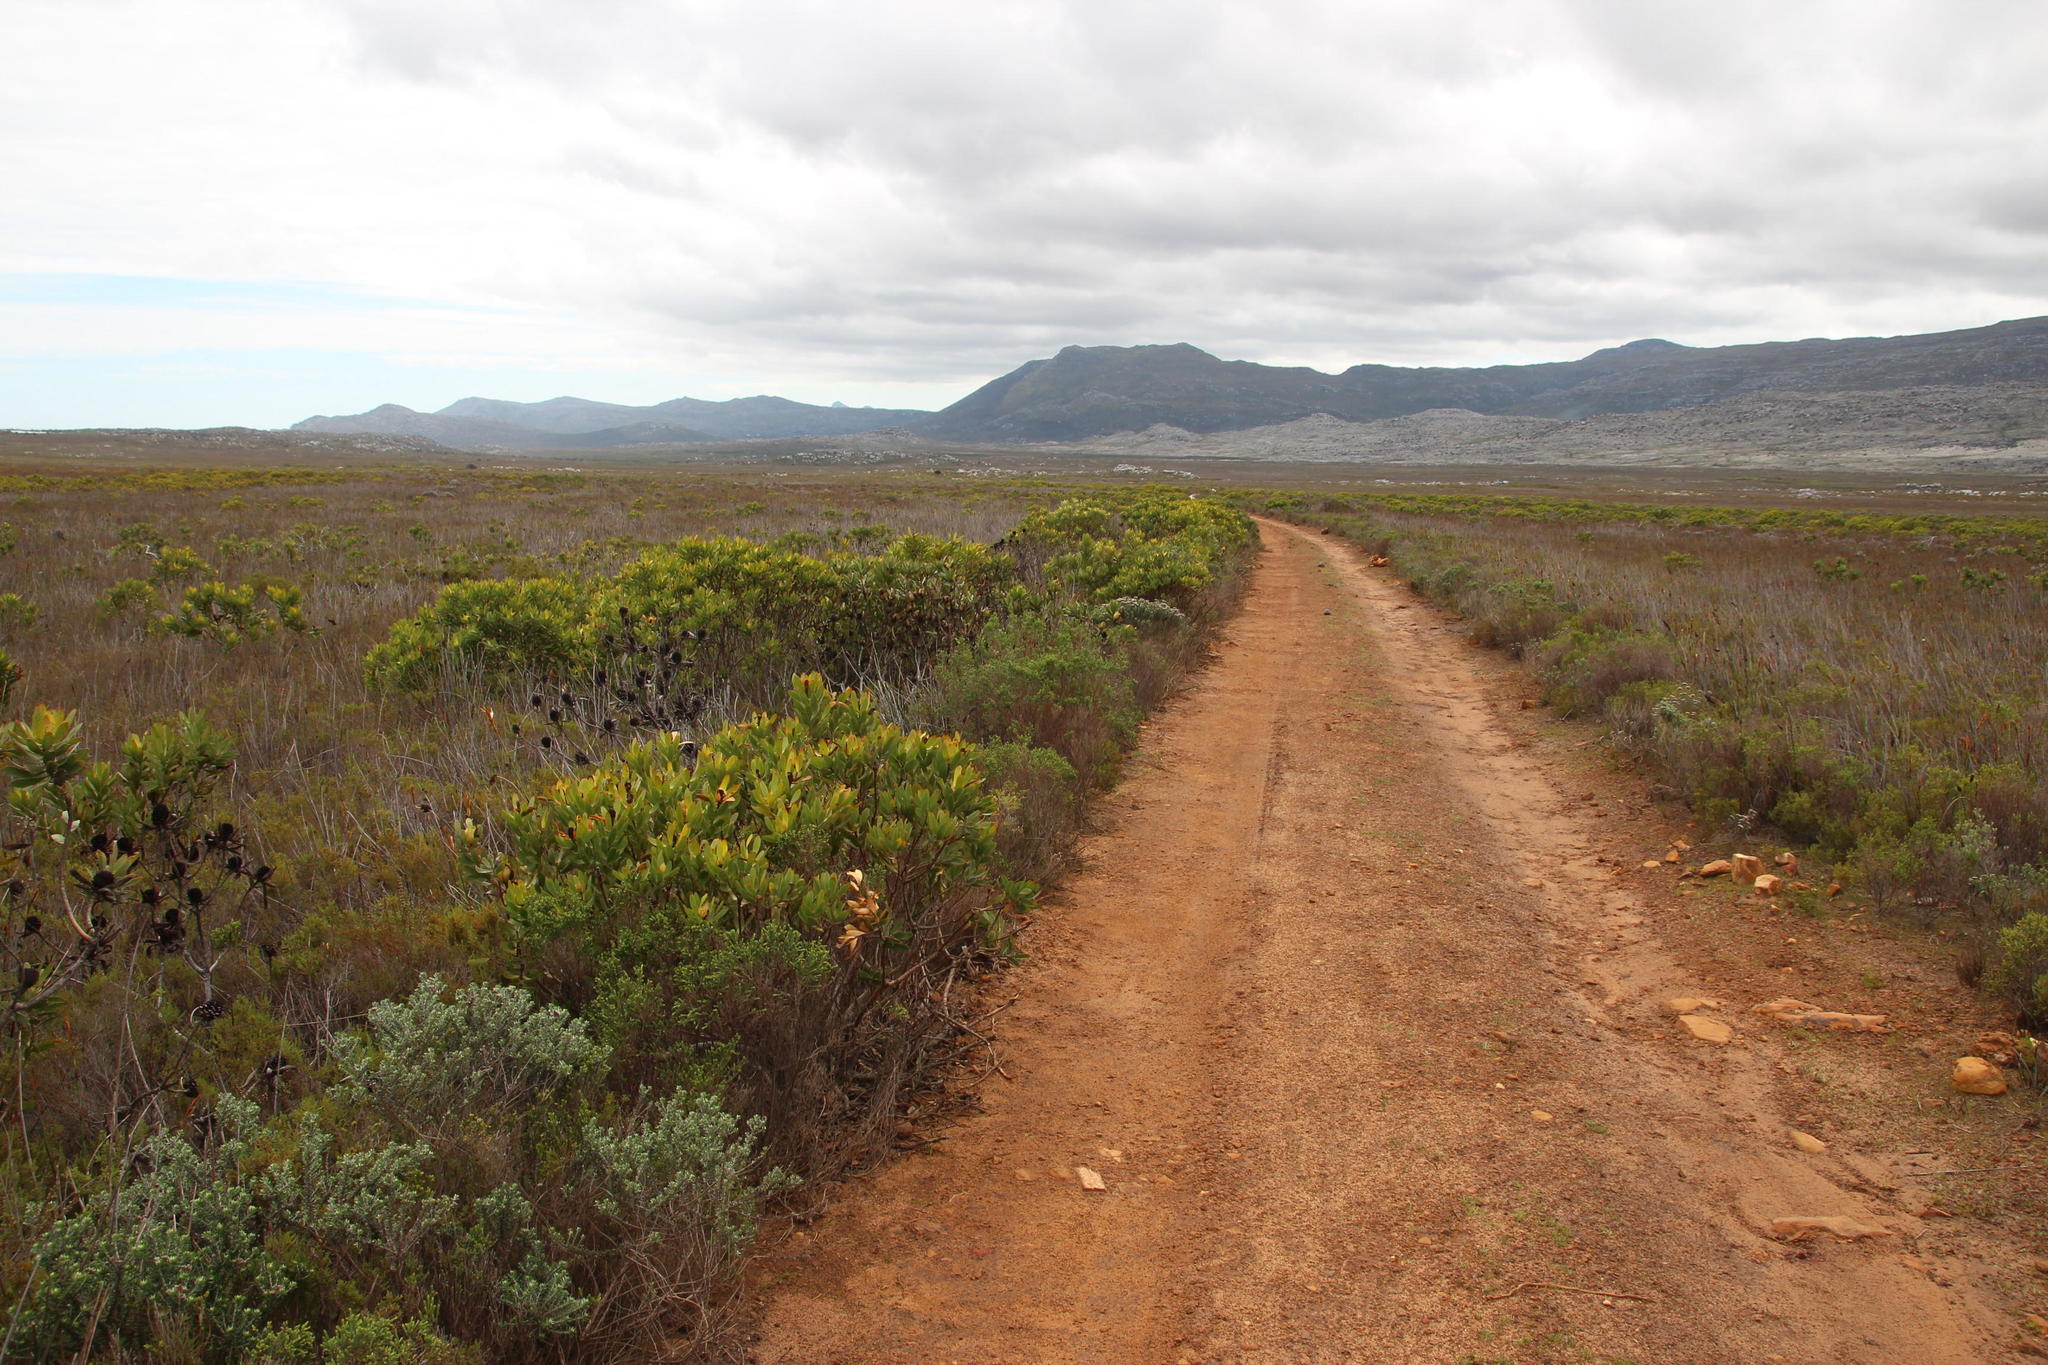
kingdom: Plantae
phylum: Tracheophyta
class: Magnoliopsida
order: Proteales
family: Proteaceae
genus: Leucadendron
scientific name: Leucadendron laureolum
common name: Golden sunshinebush
